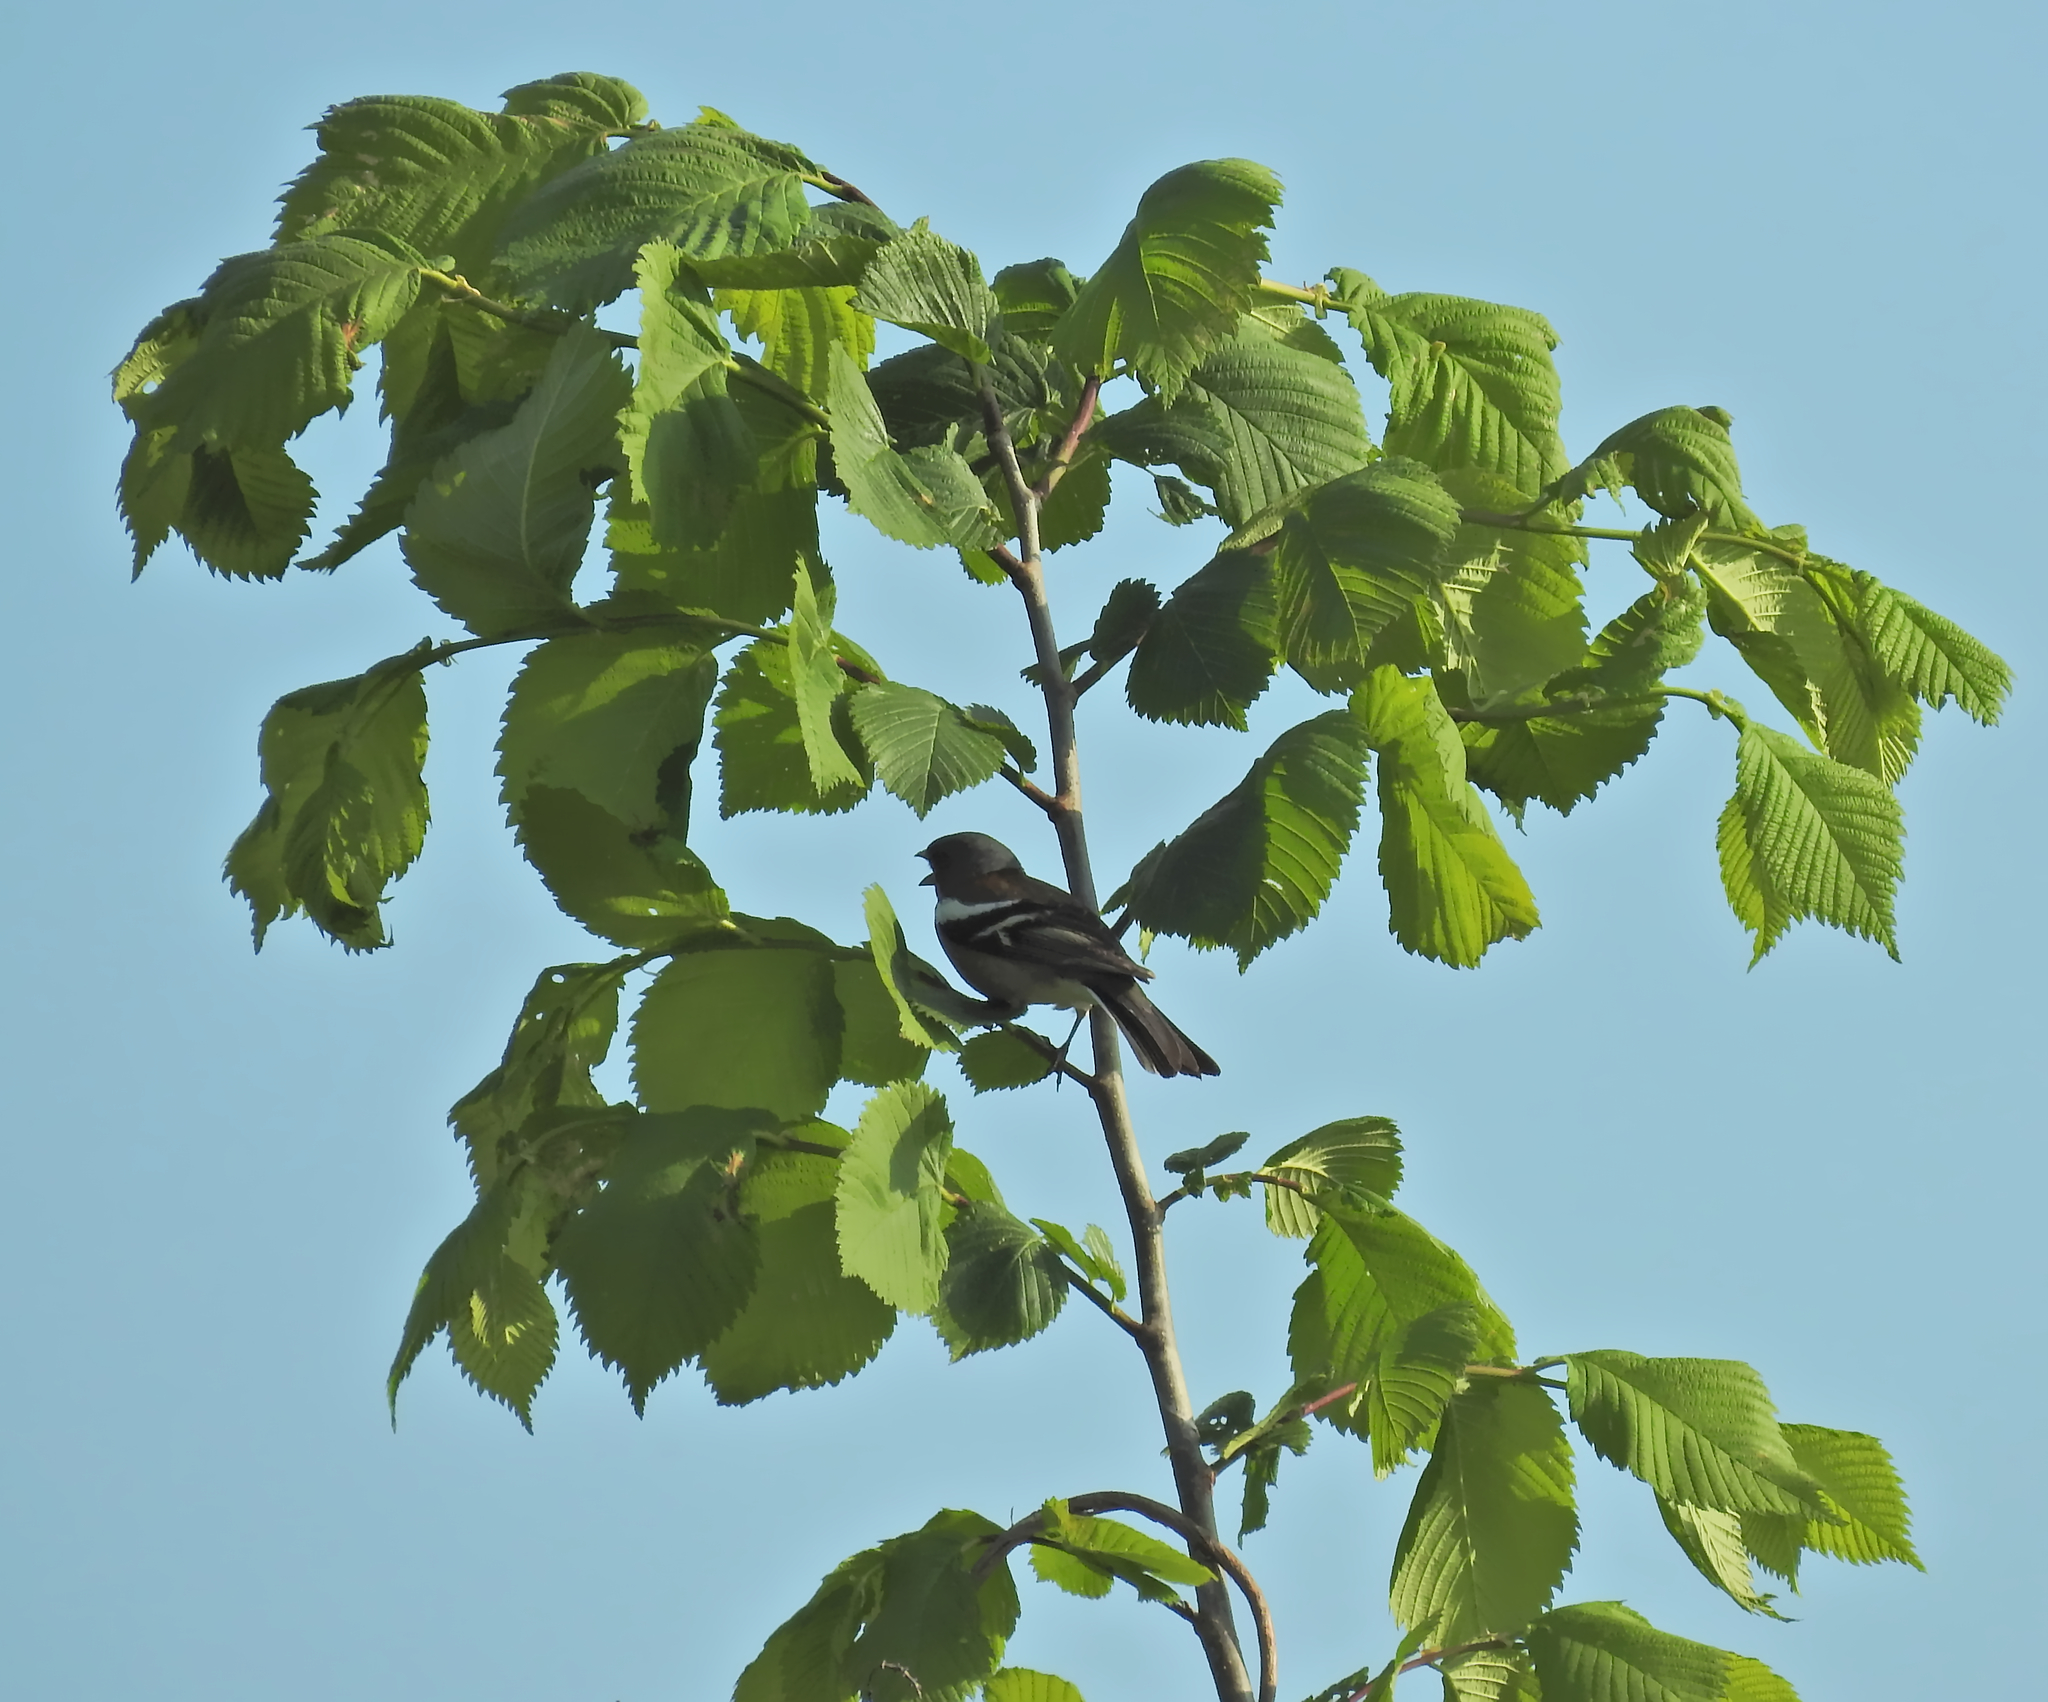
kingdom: Animalia
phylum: Chordata
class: Aves
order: Passeriformes
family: Fringillidae
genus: Fringilla
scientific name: Fringilla coelebs
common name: Common chaffinch
